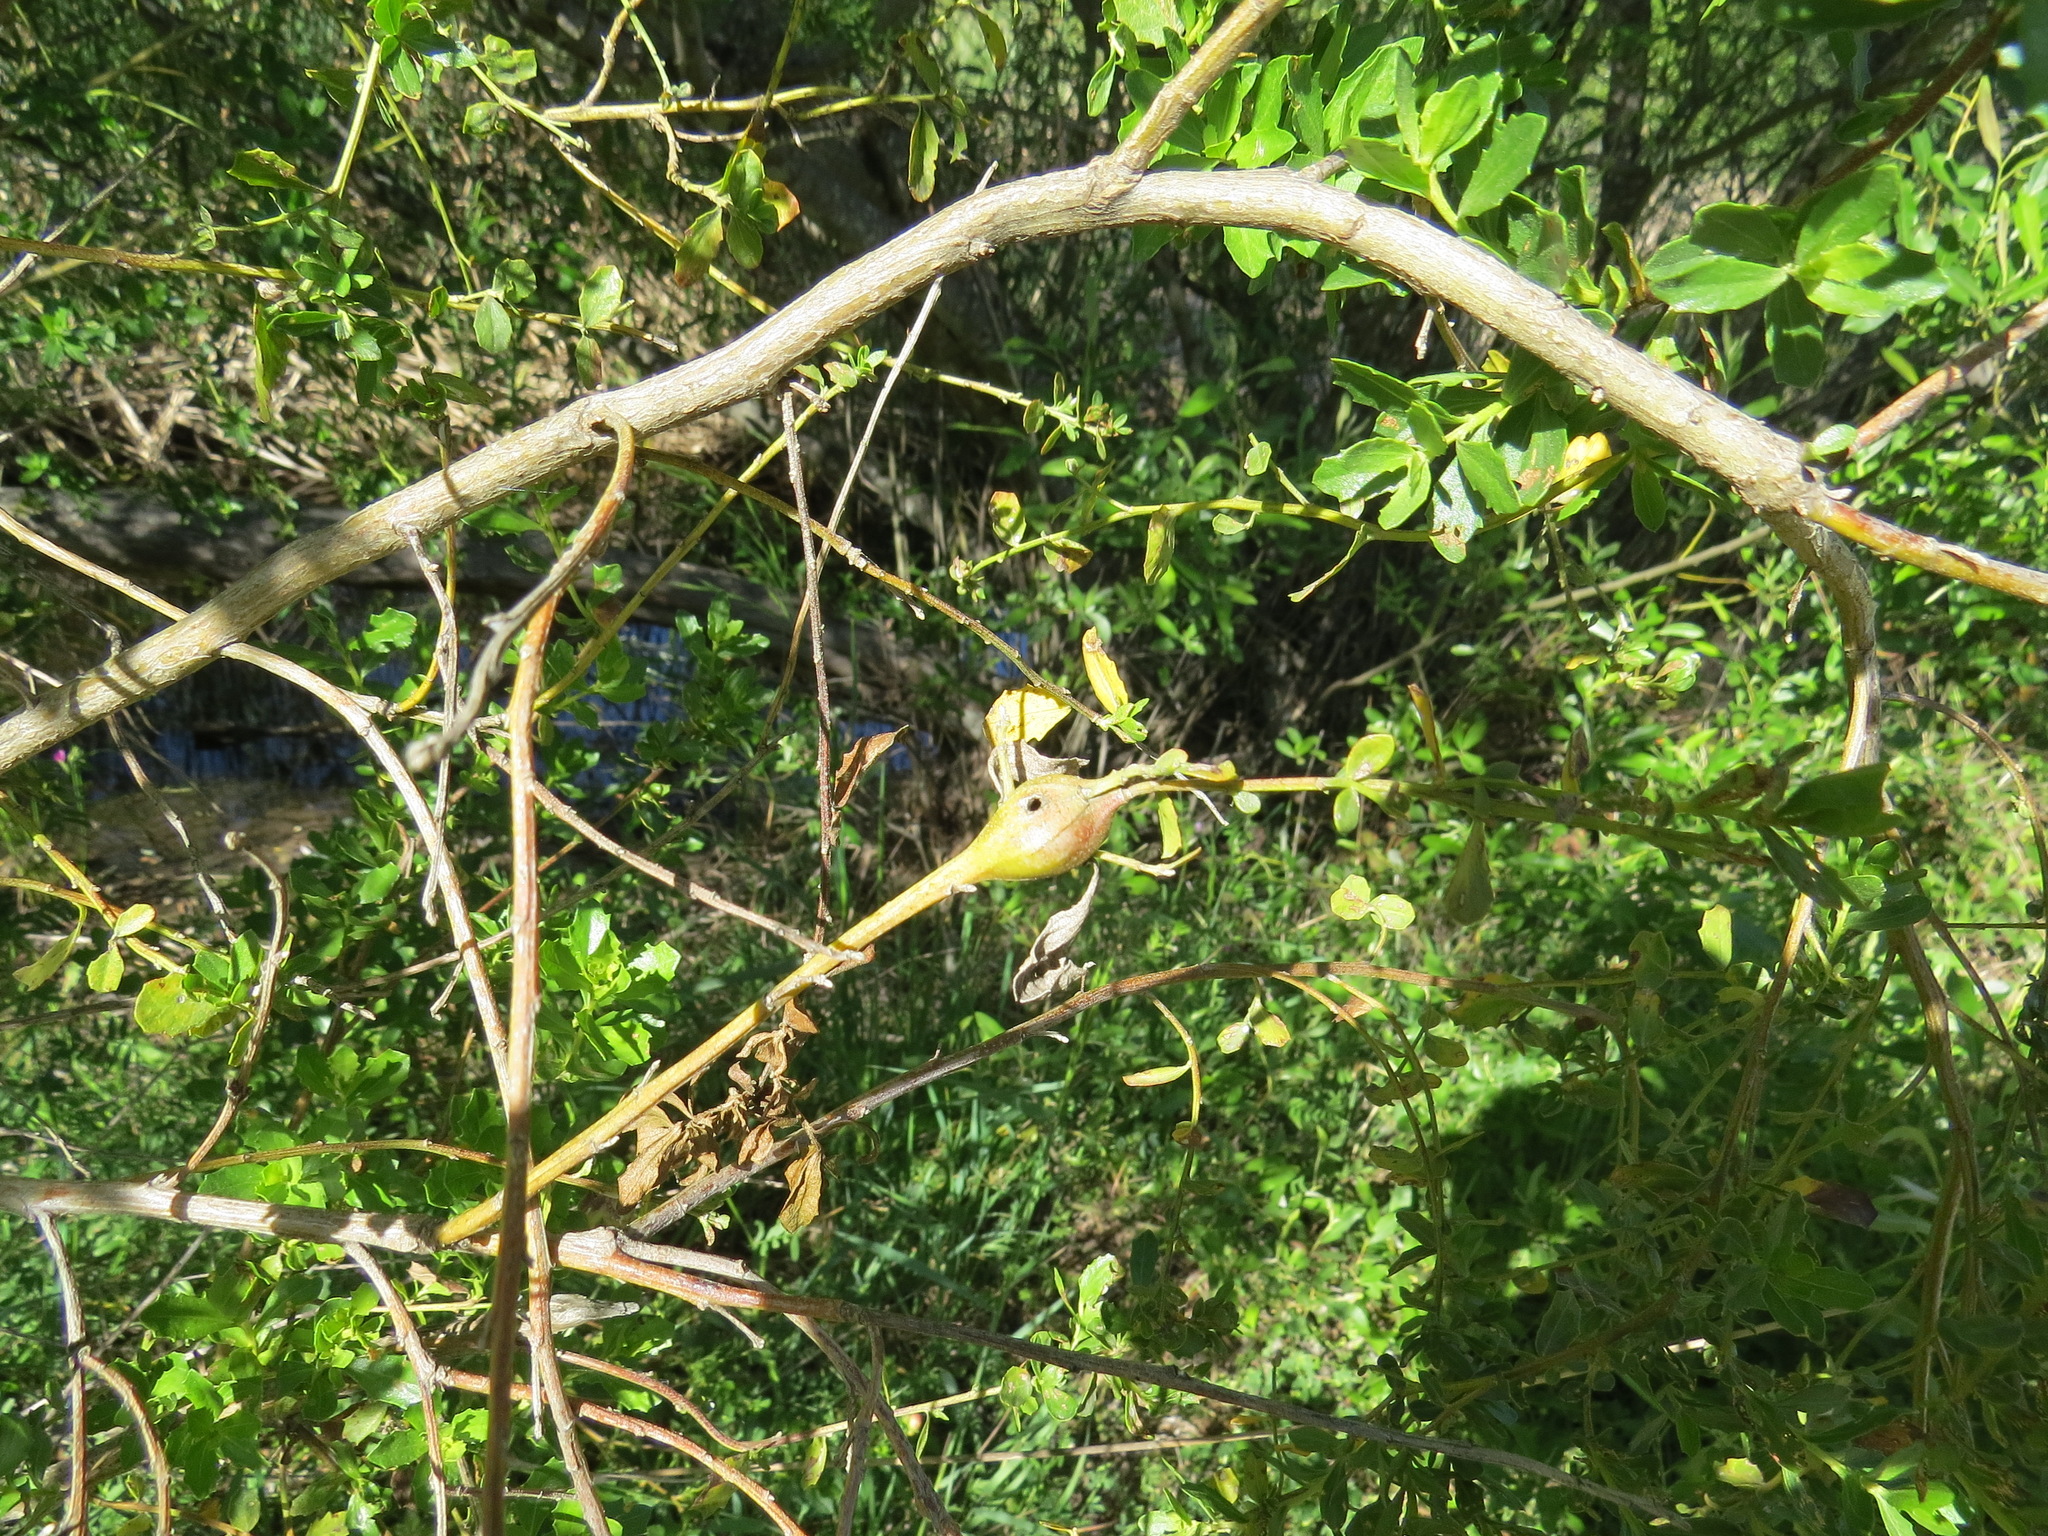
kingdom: Animalia
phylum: Arthropoda
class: Insecta
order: Lepidoptera
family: Gelechiidae
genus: Gnorimoschema
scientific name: Gnorimoschema baccharisella
